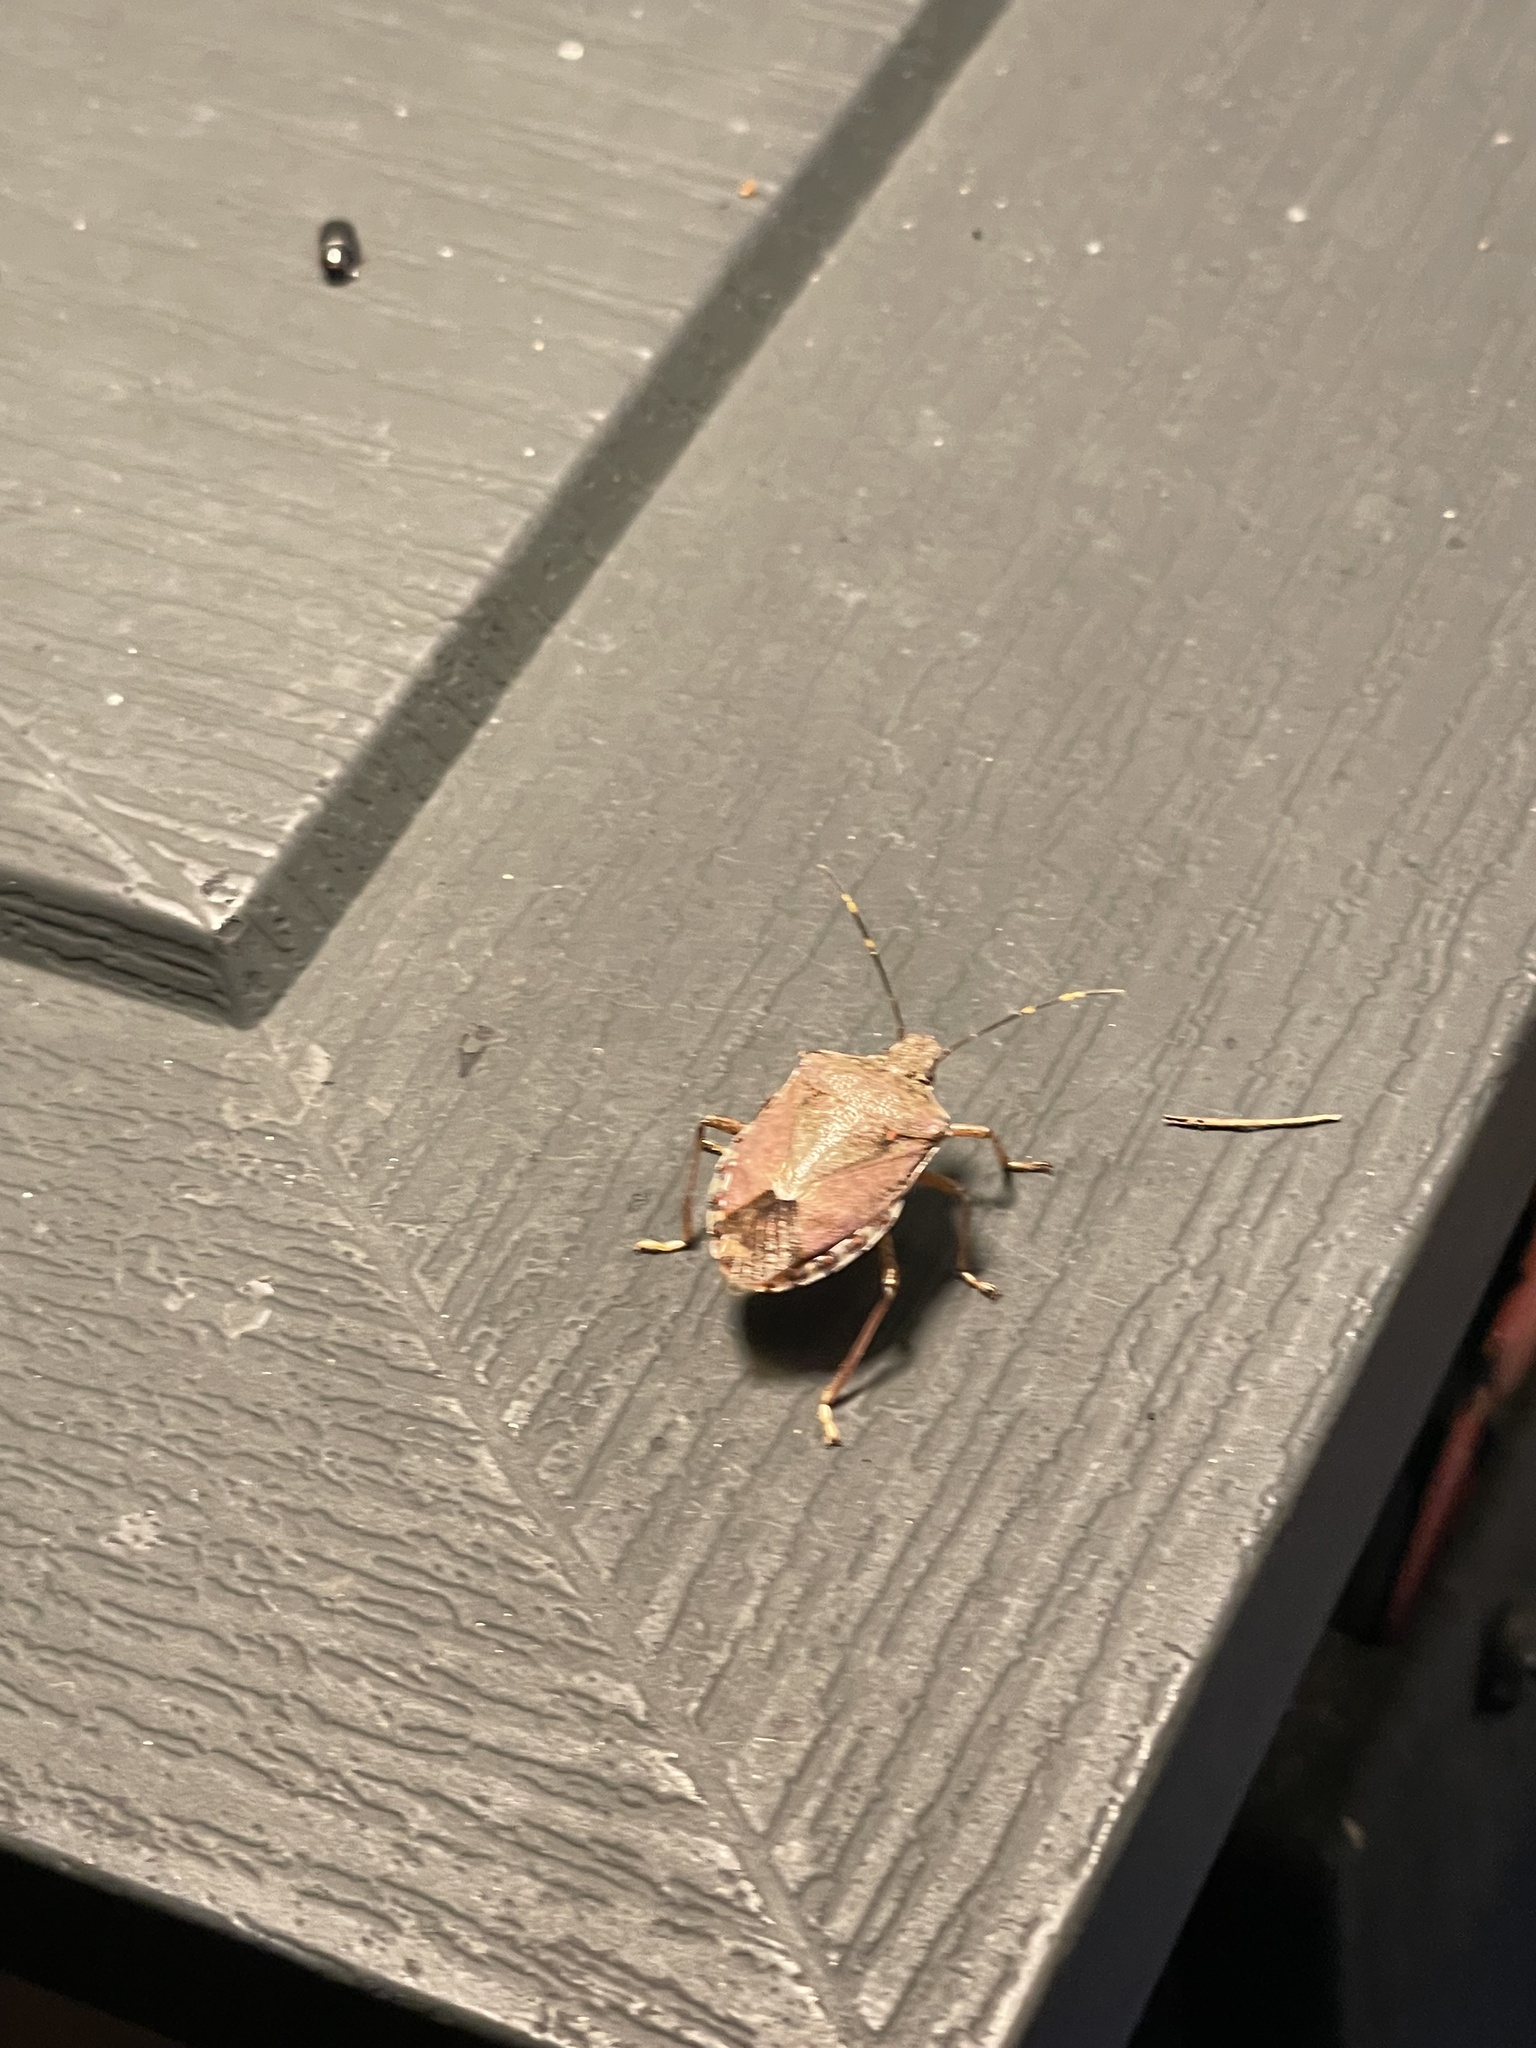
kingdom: Animalia
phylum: Arthropoda
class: Insecta
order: Hemiptera
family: Pentatomidae
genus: Halyomorpha
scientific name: Halyomorpha halys
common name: Brown marmorated stink bug
